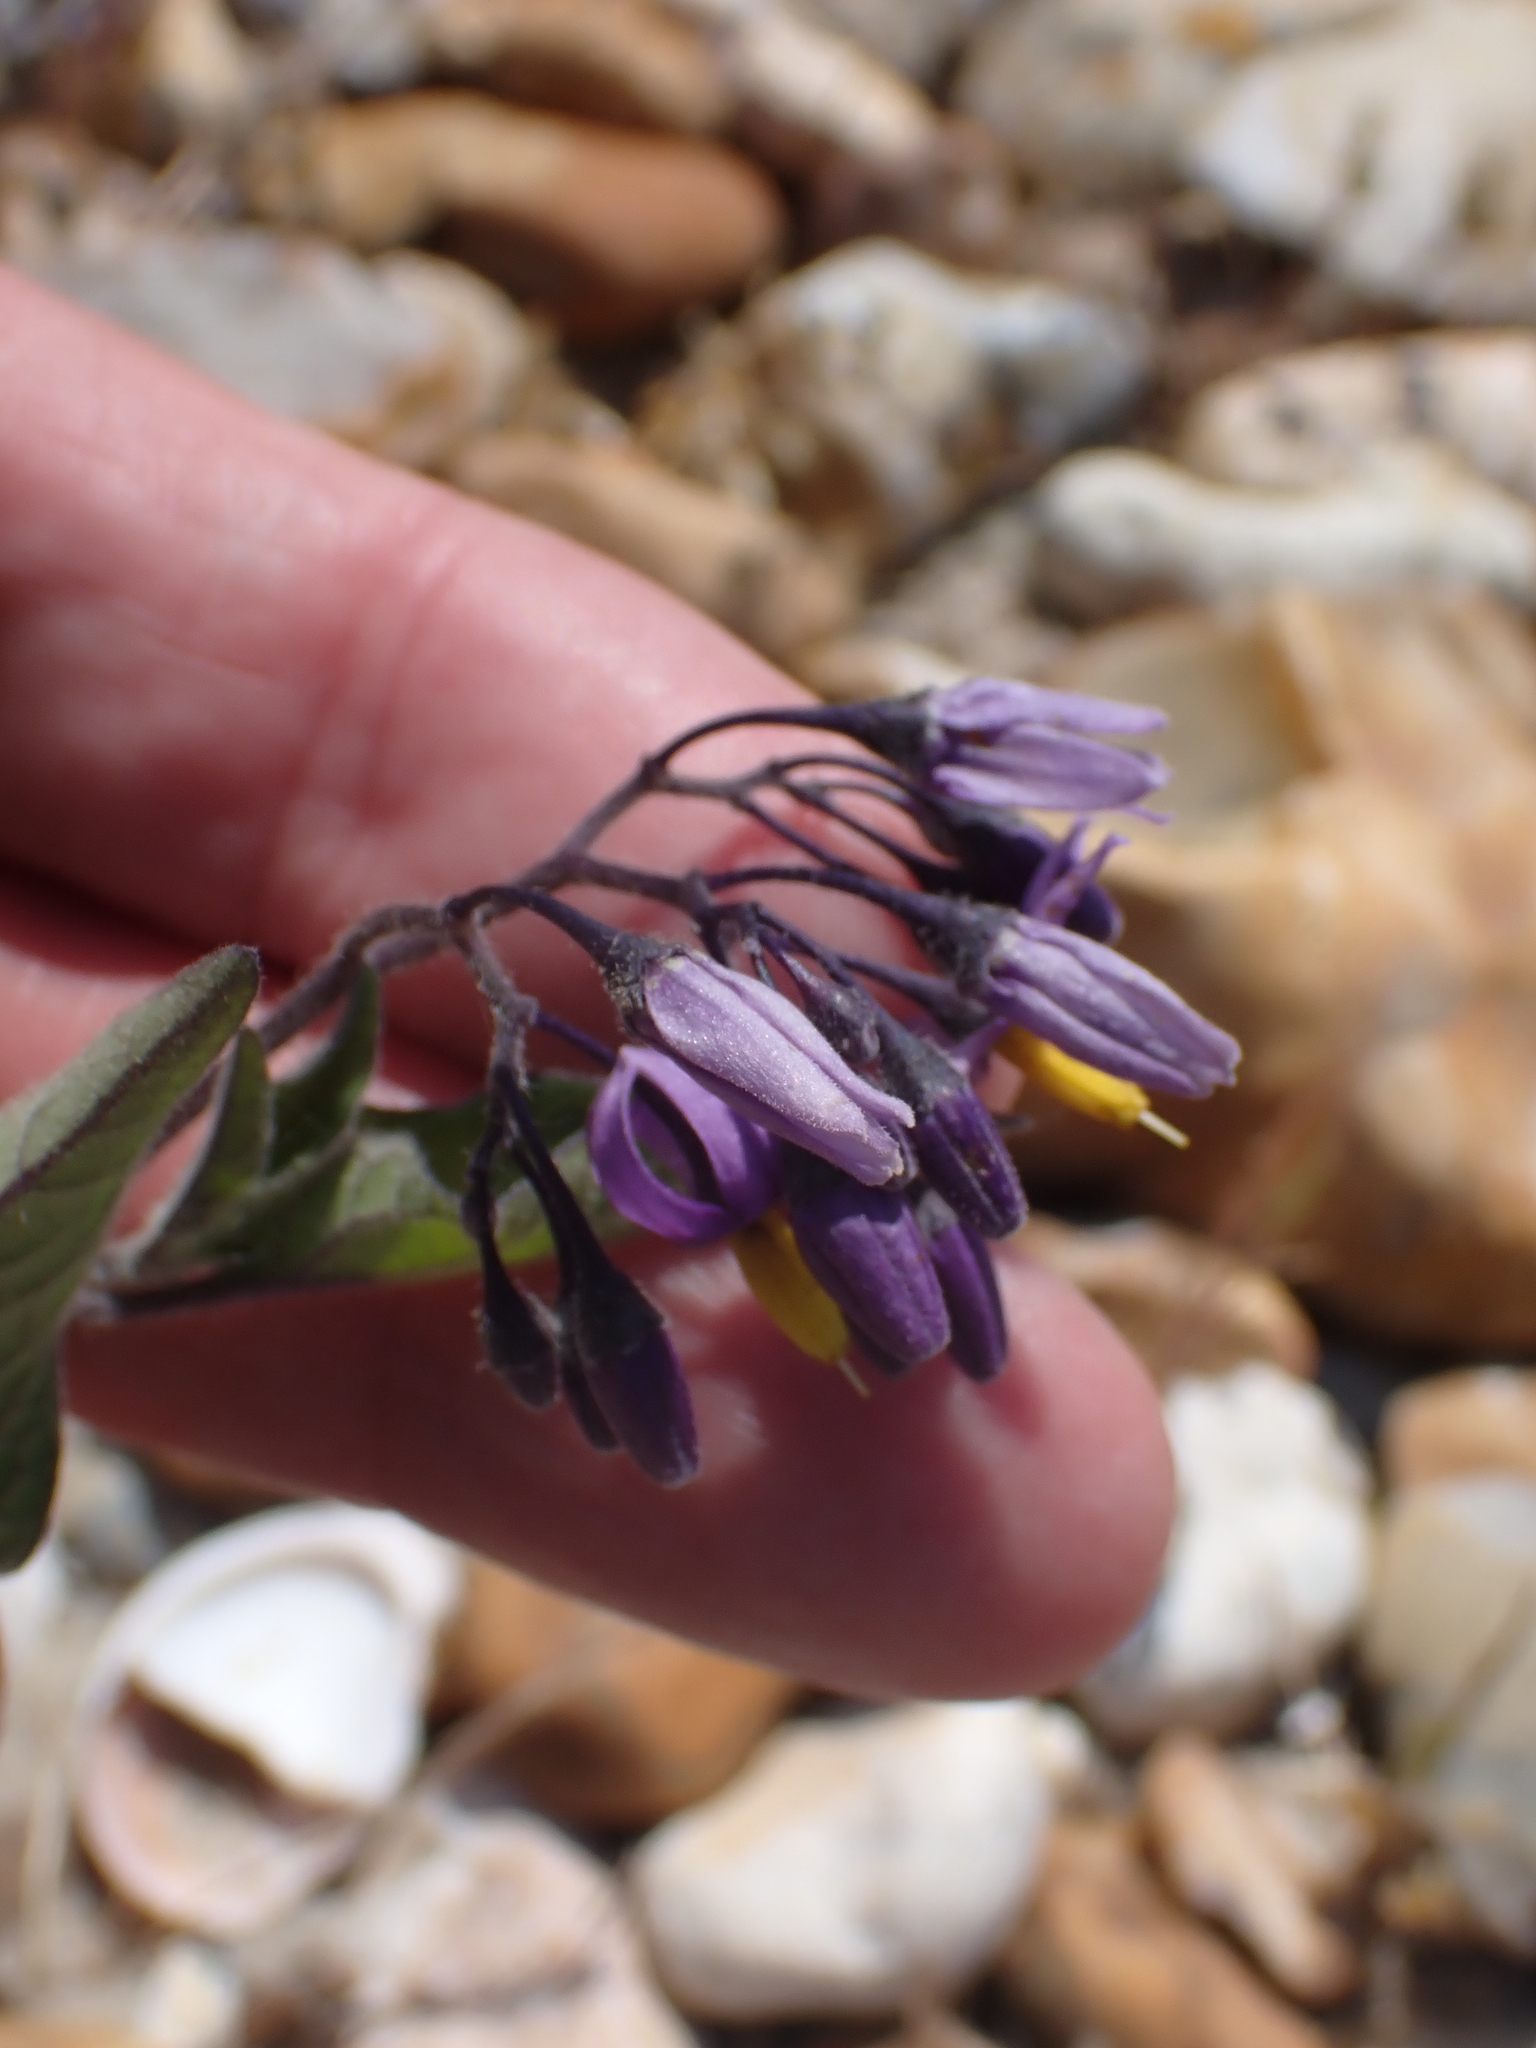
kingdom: Plantae
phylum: Tracheophyta
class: Magnoliopsida
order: Solanales
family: Solanaceae
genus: Solanum
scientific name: Solanum dulcamara
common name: Climbing nightshade
